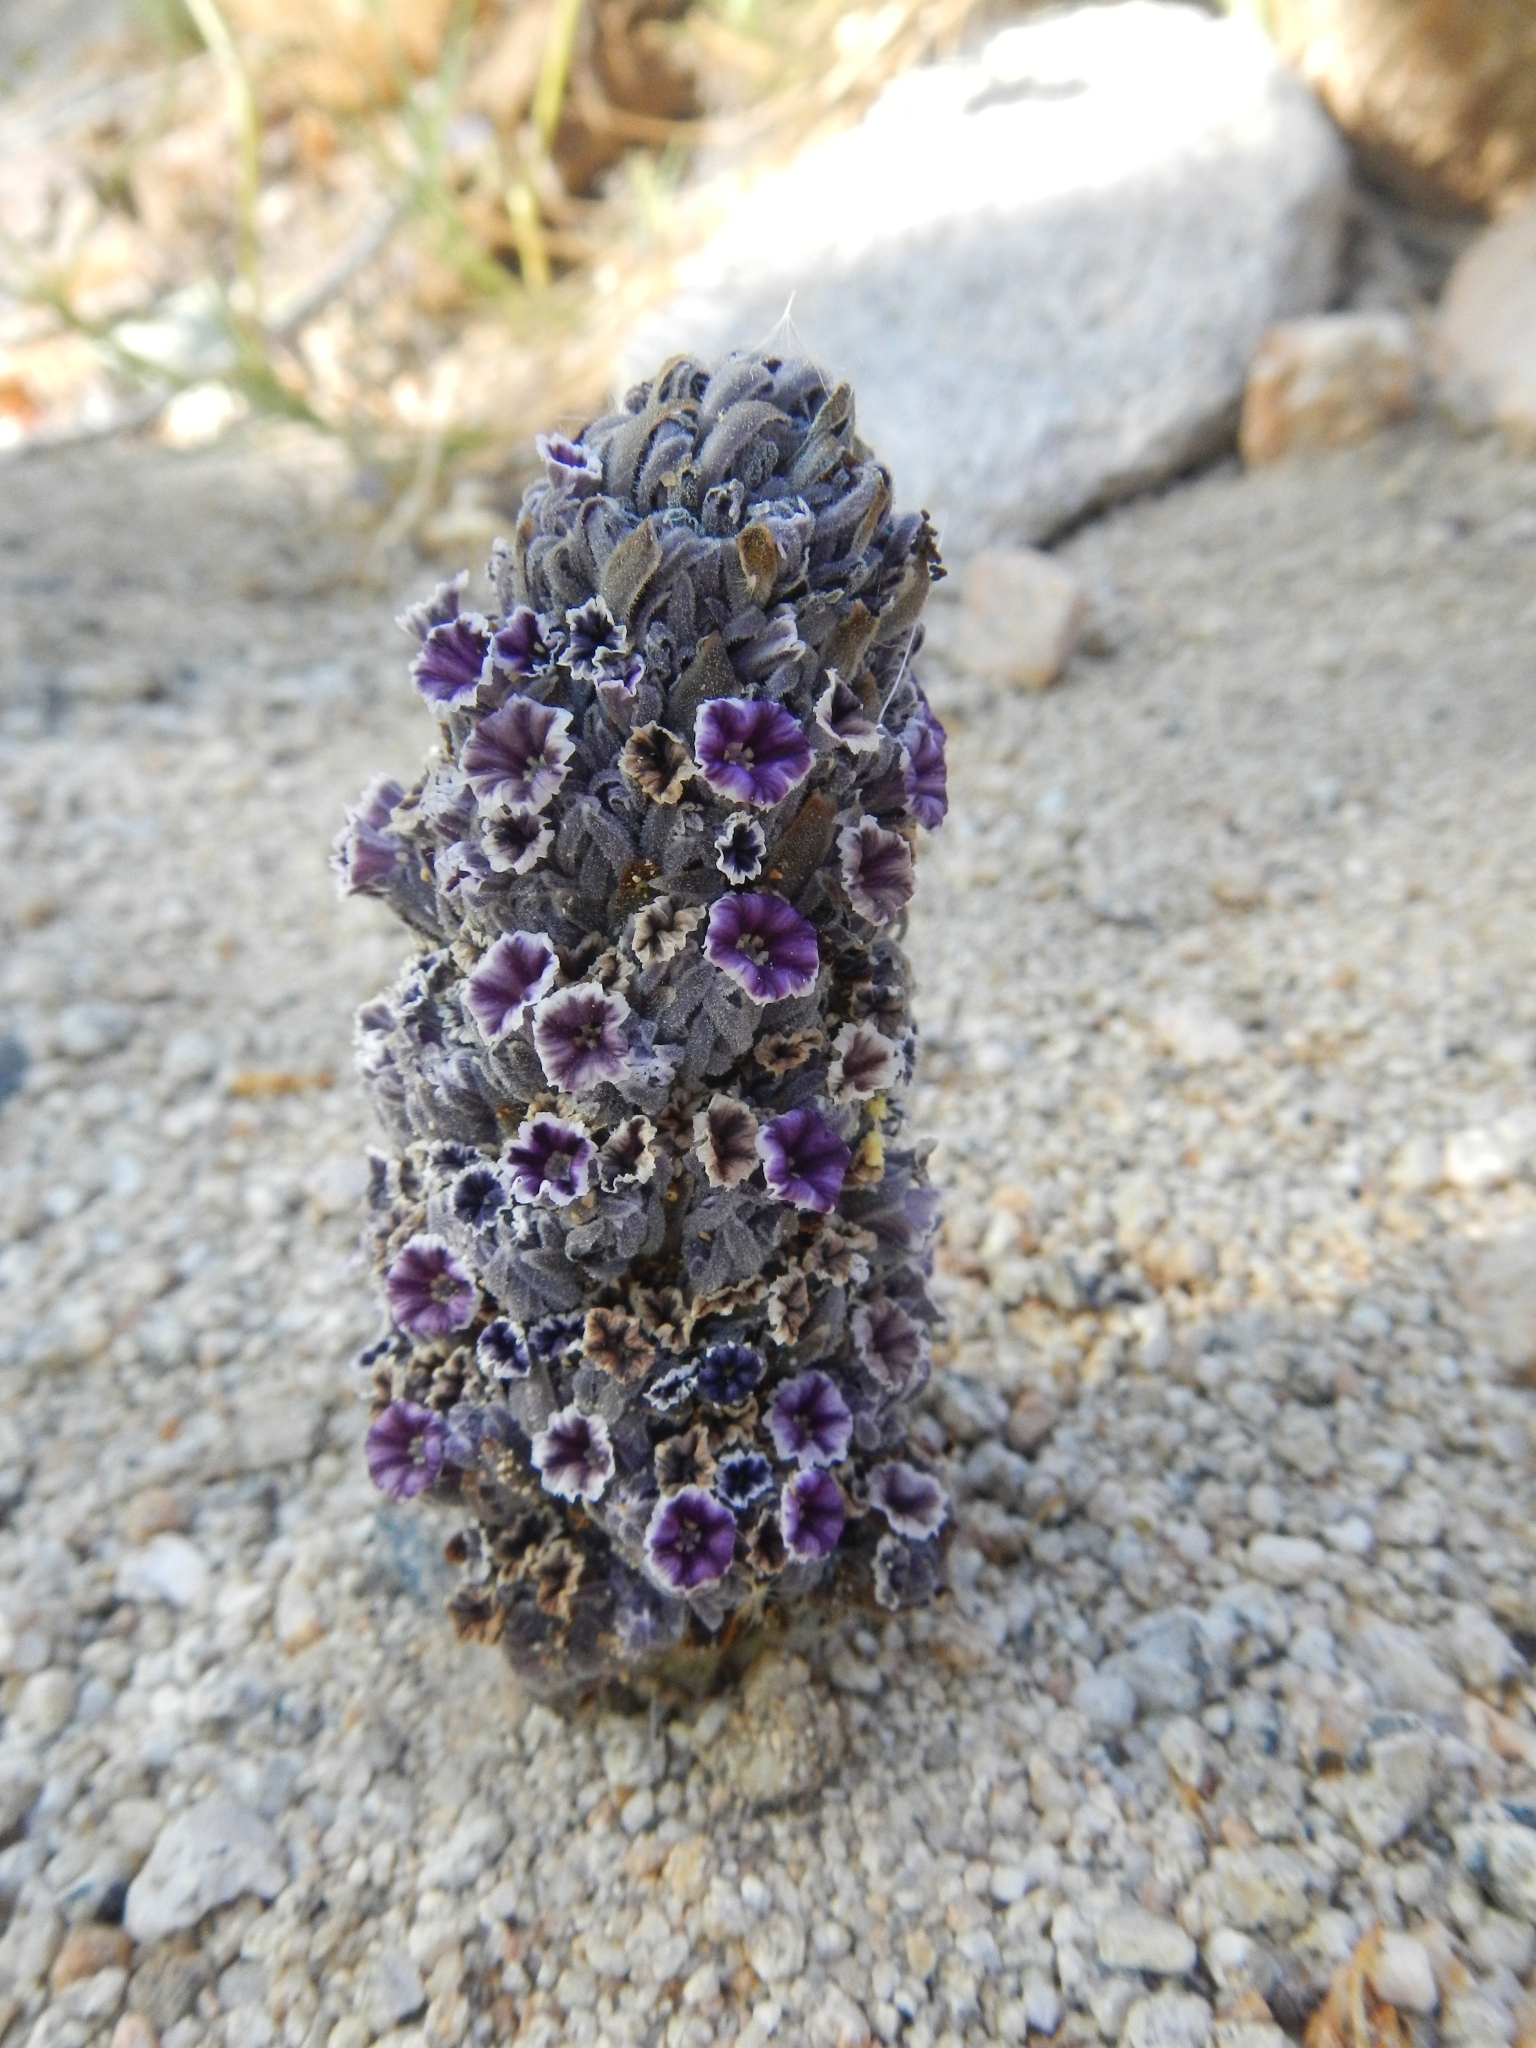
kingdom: Plantae
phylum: Tracheophyta
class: Magnoliopsida
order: Boraginales
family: Lennoaceae
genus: Pholisma
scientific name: Pholisma arenarium
